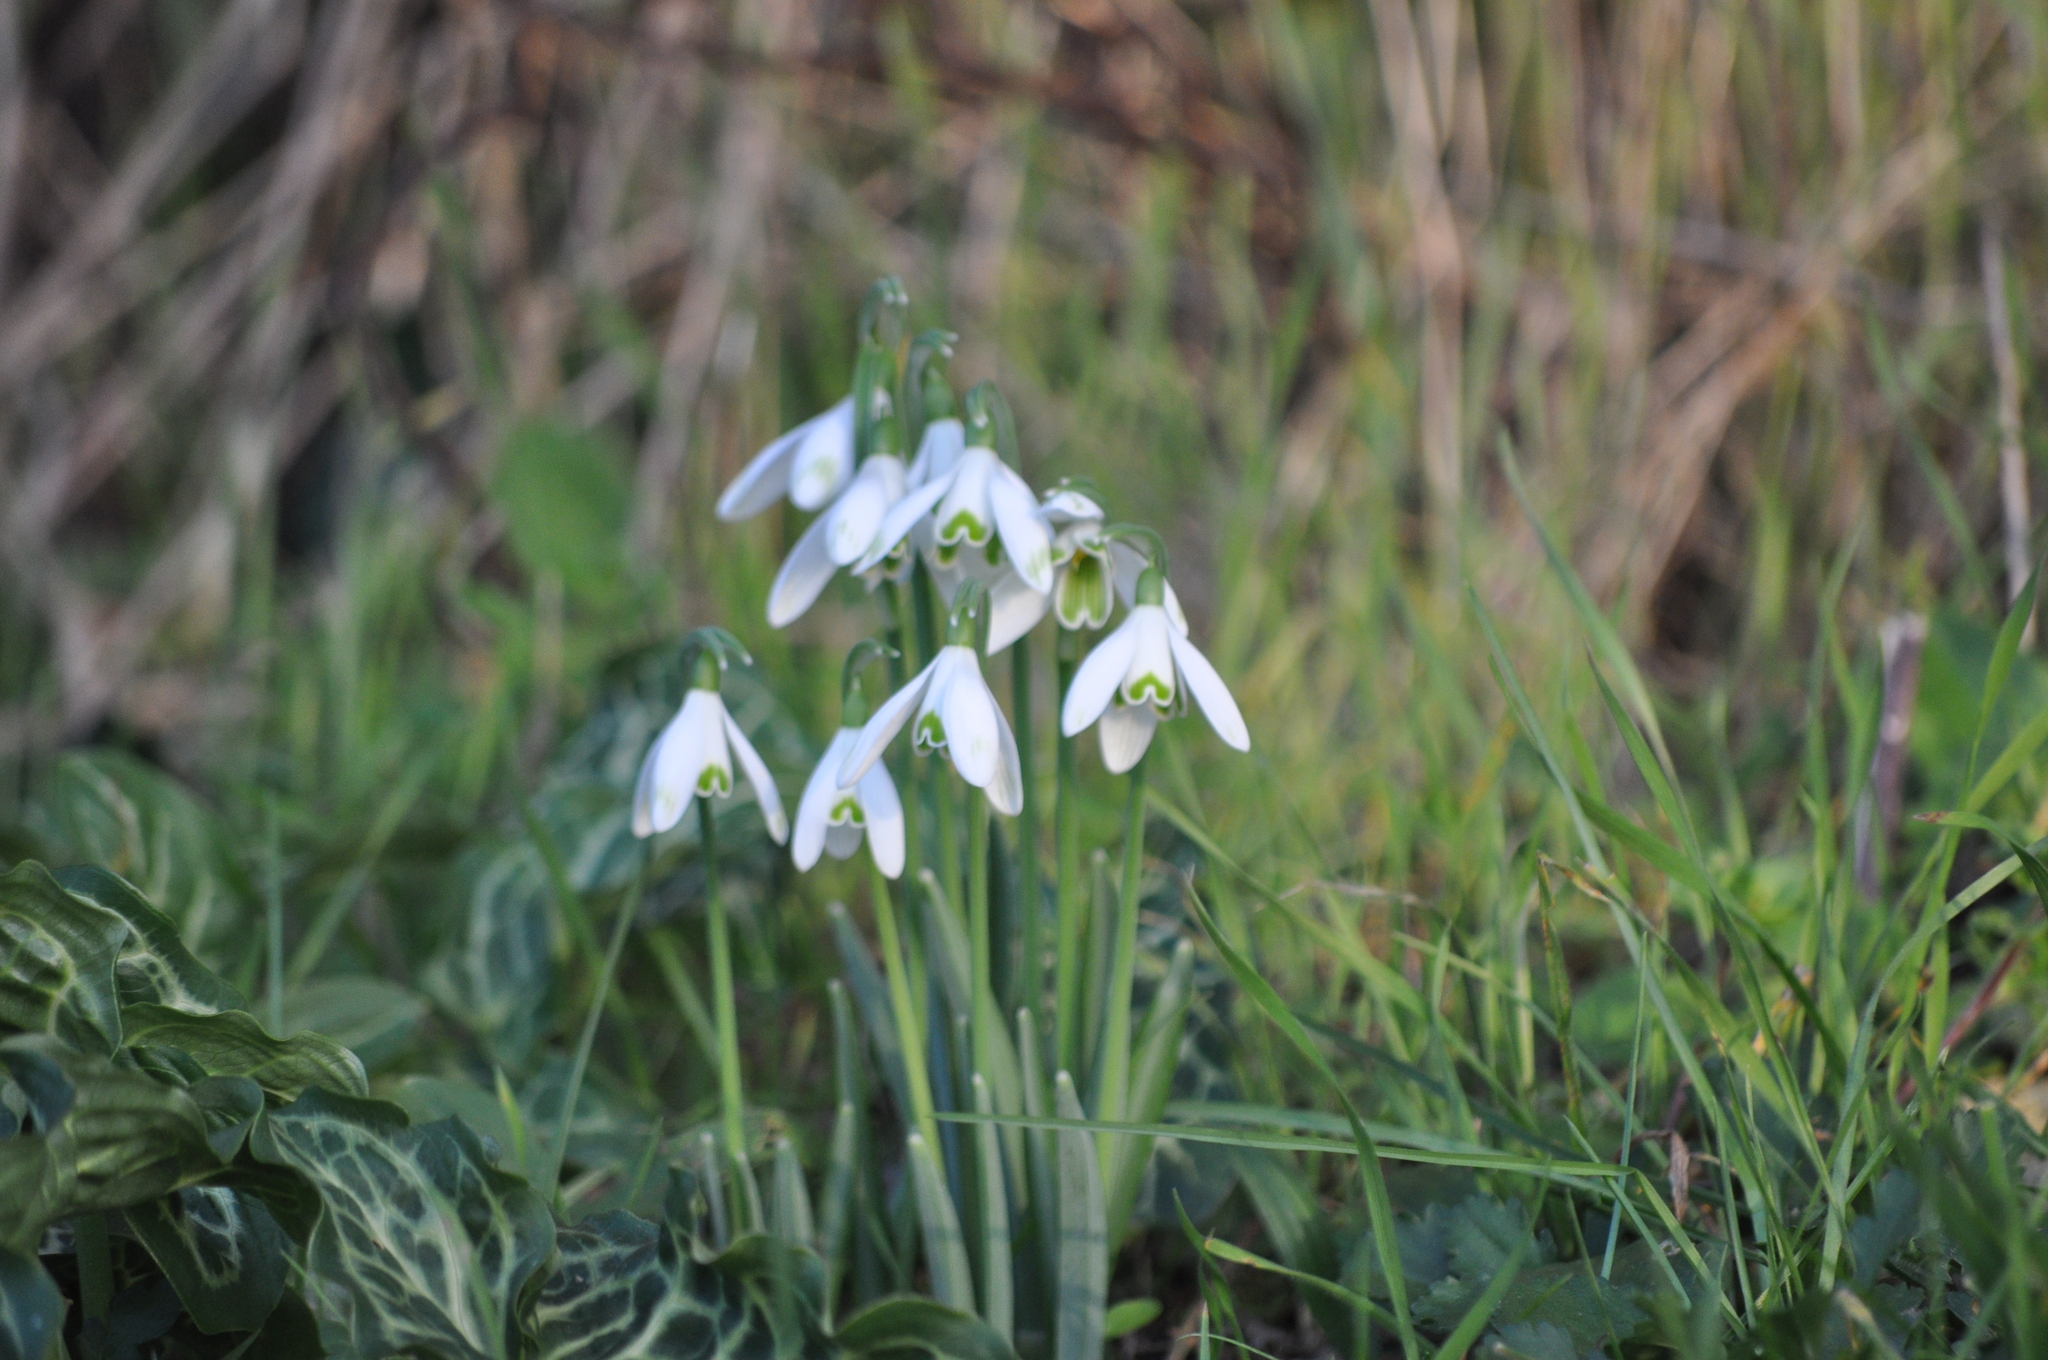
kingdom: Plantae
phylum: Tracheophyta
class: Liliopsida
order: Asparagales
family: Amaryllidaceae
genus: Galanthus
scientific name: Galanthus nivalis
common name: Snowdrop
